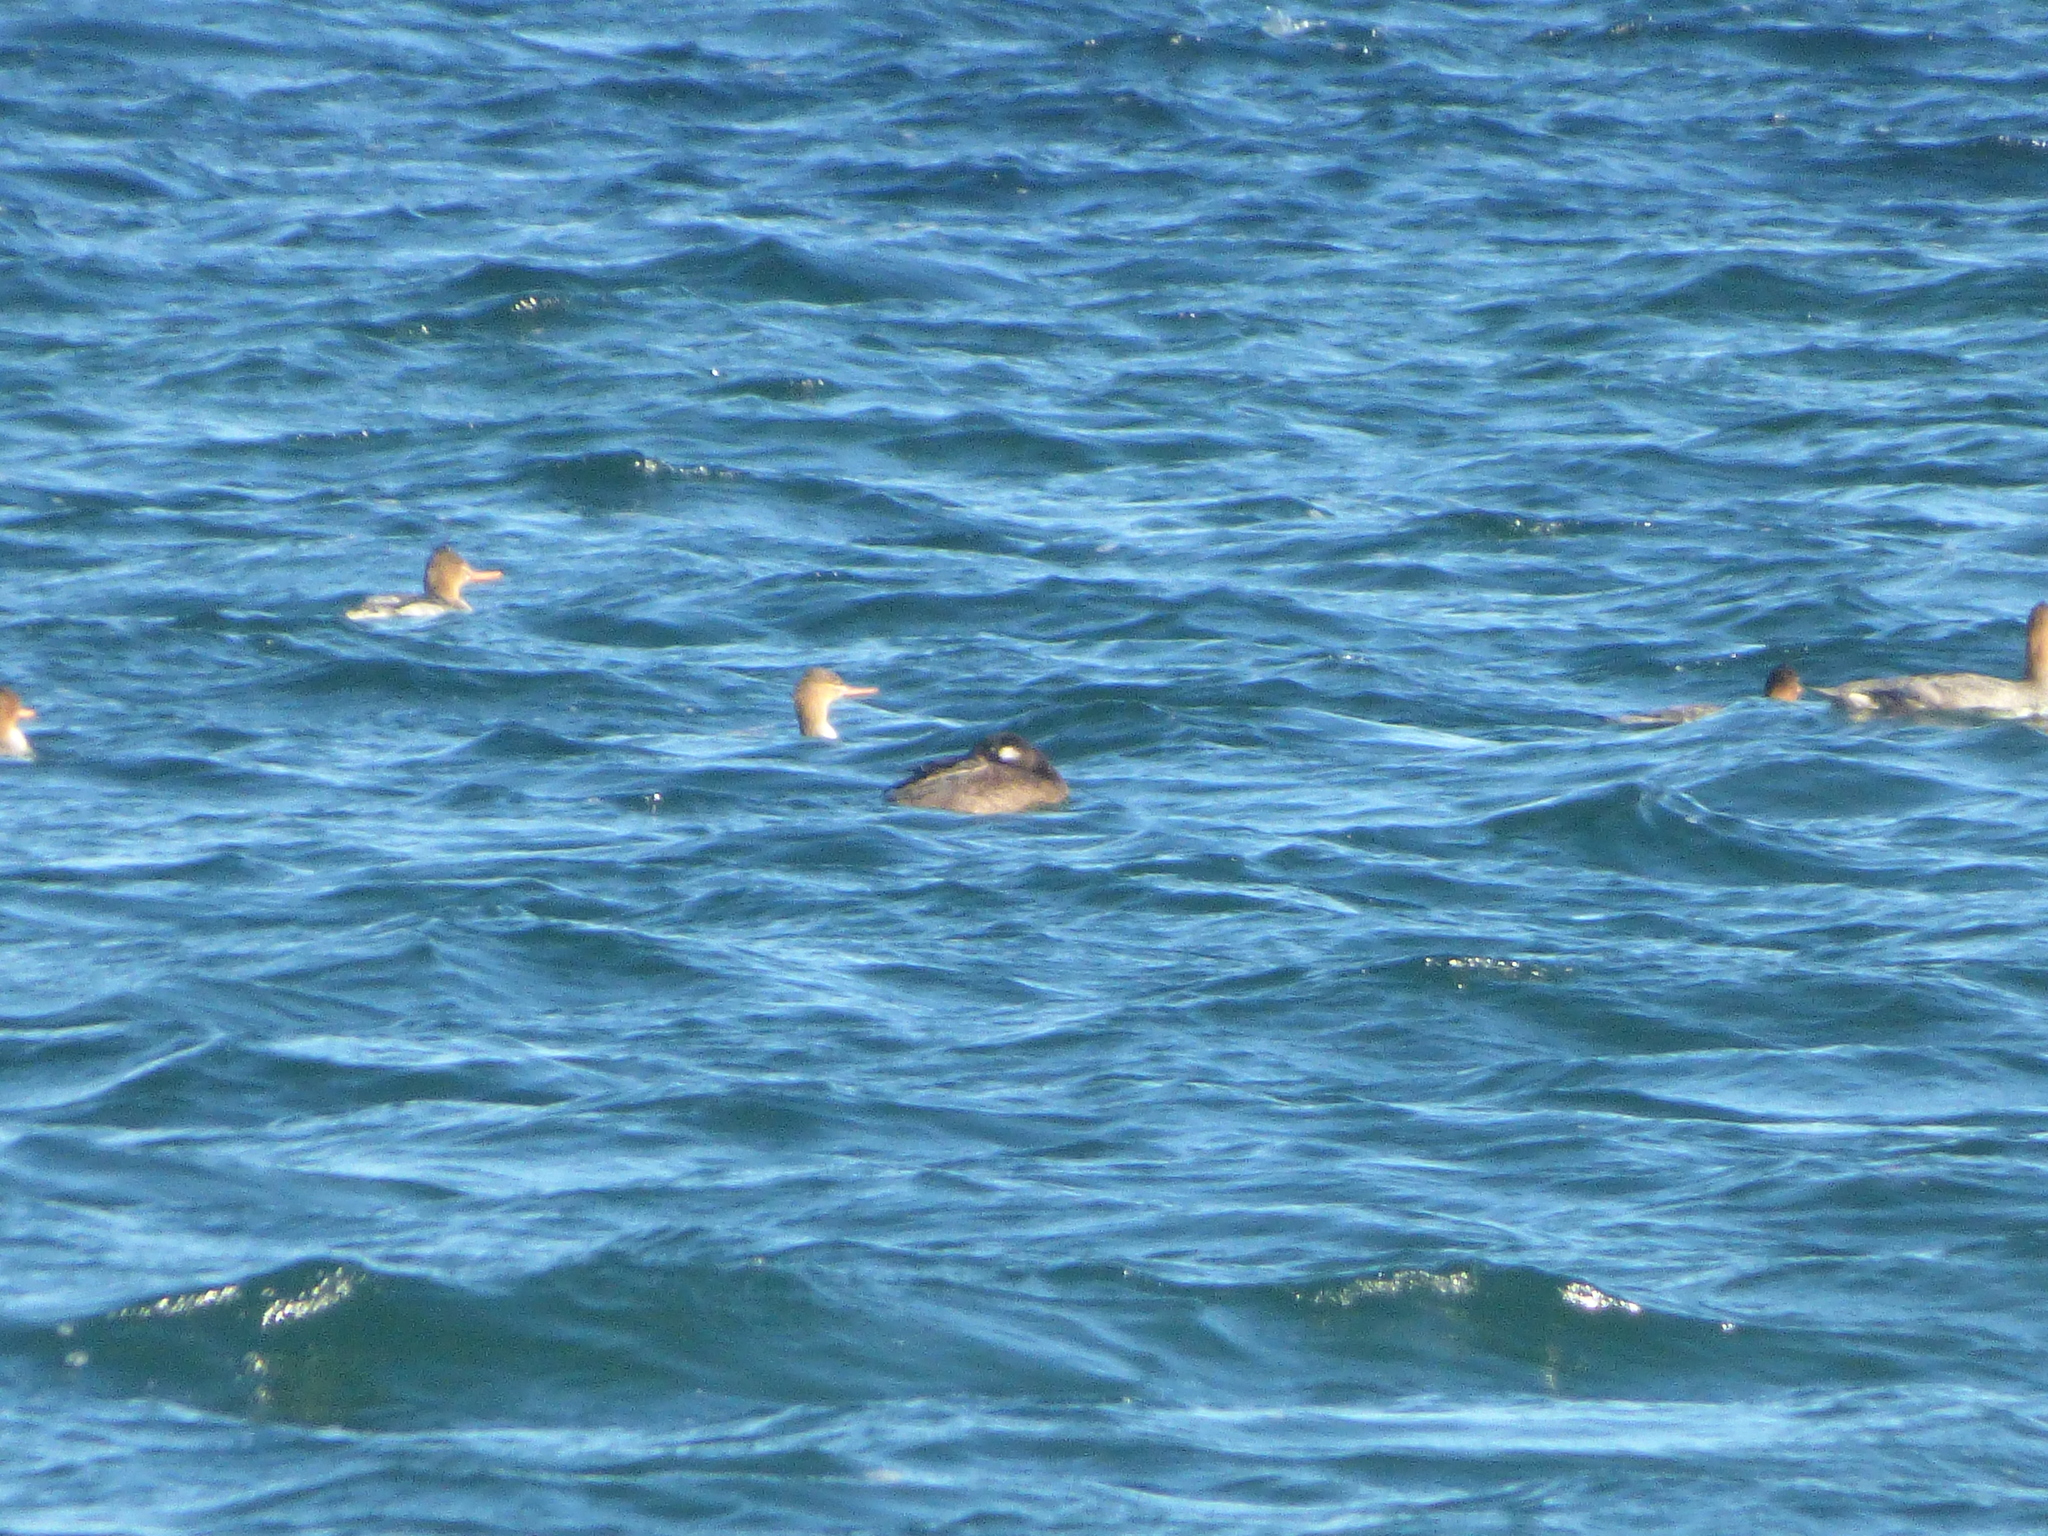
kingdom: Animalia
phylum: Chordata
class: Aves
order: Anseriformes
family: Anatidae
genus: Mergus
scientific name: Mergus serrator
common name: Red-breasted merganser
